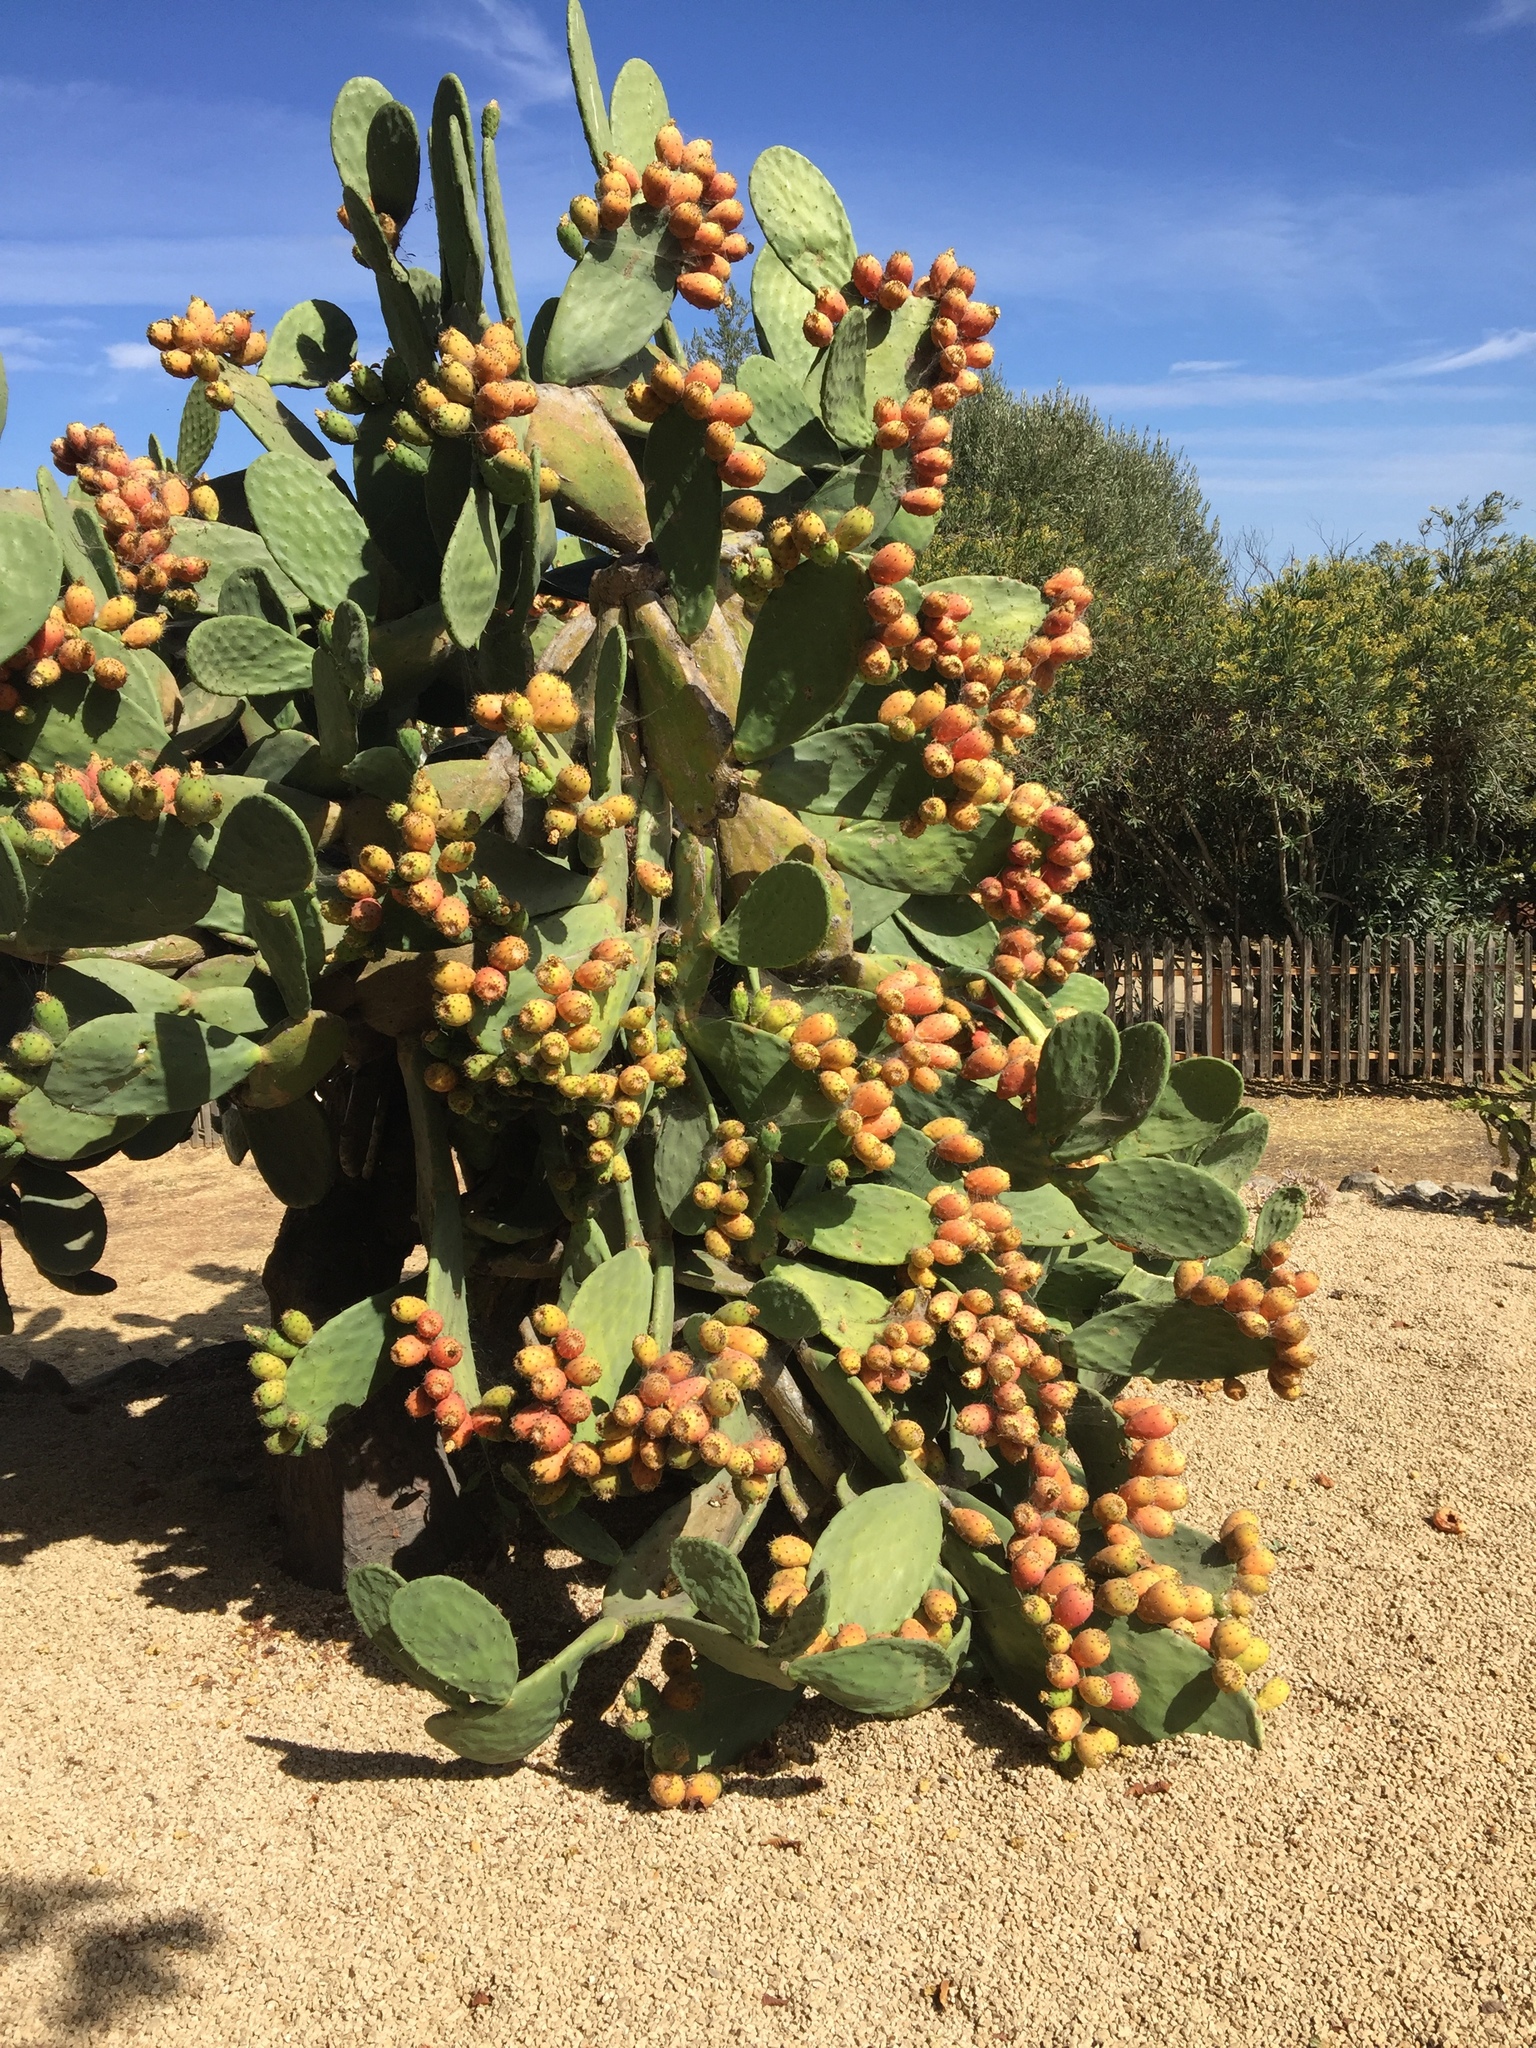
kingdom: Plantae
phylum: Tracheophyta
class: Magnoliopsida
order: Caryophyllales
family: Cactaceae
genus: Opuntia
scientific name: Opuntia ficus-indica
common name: Barbary fig
